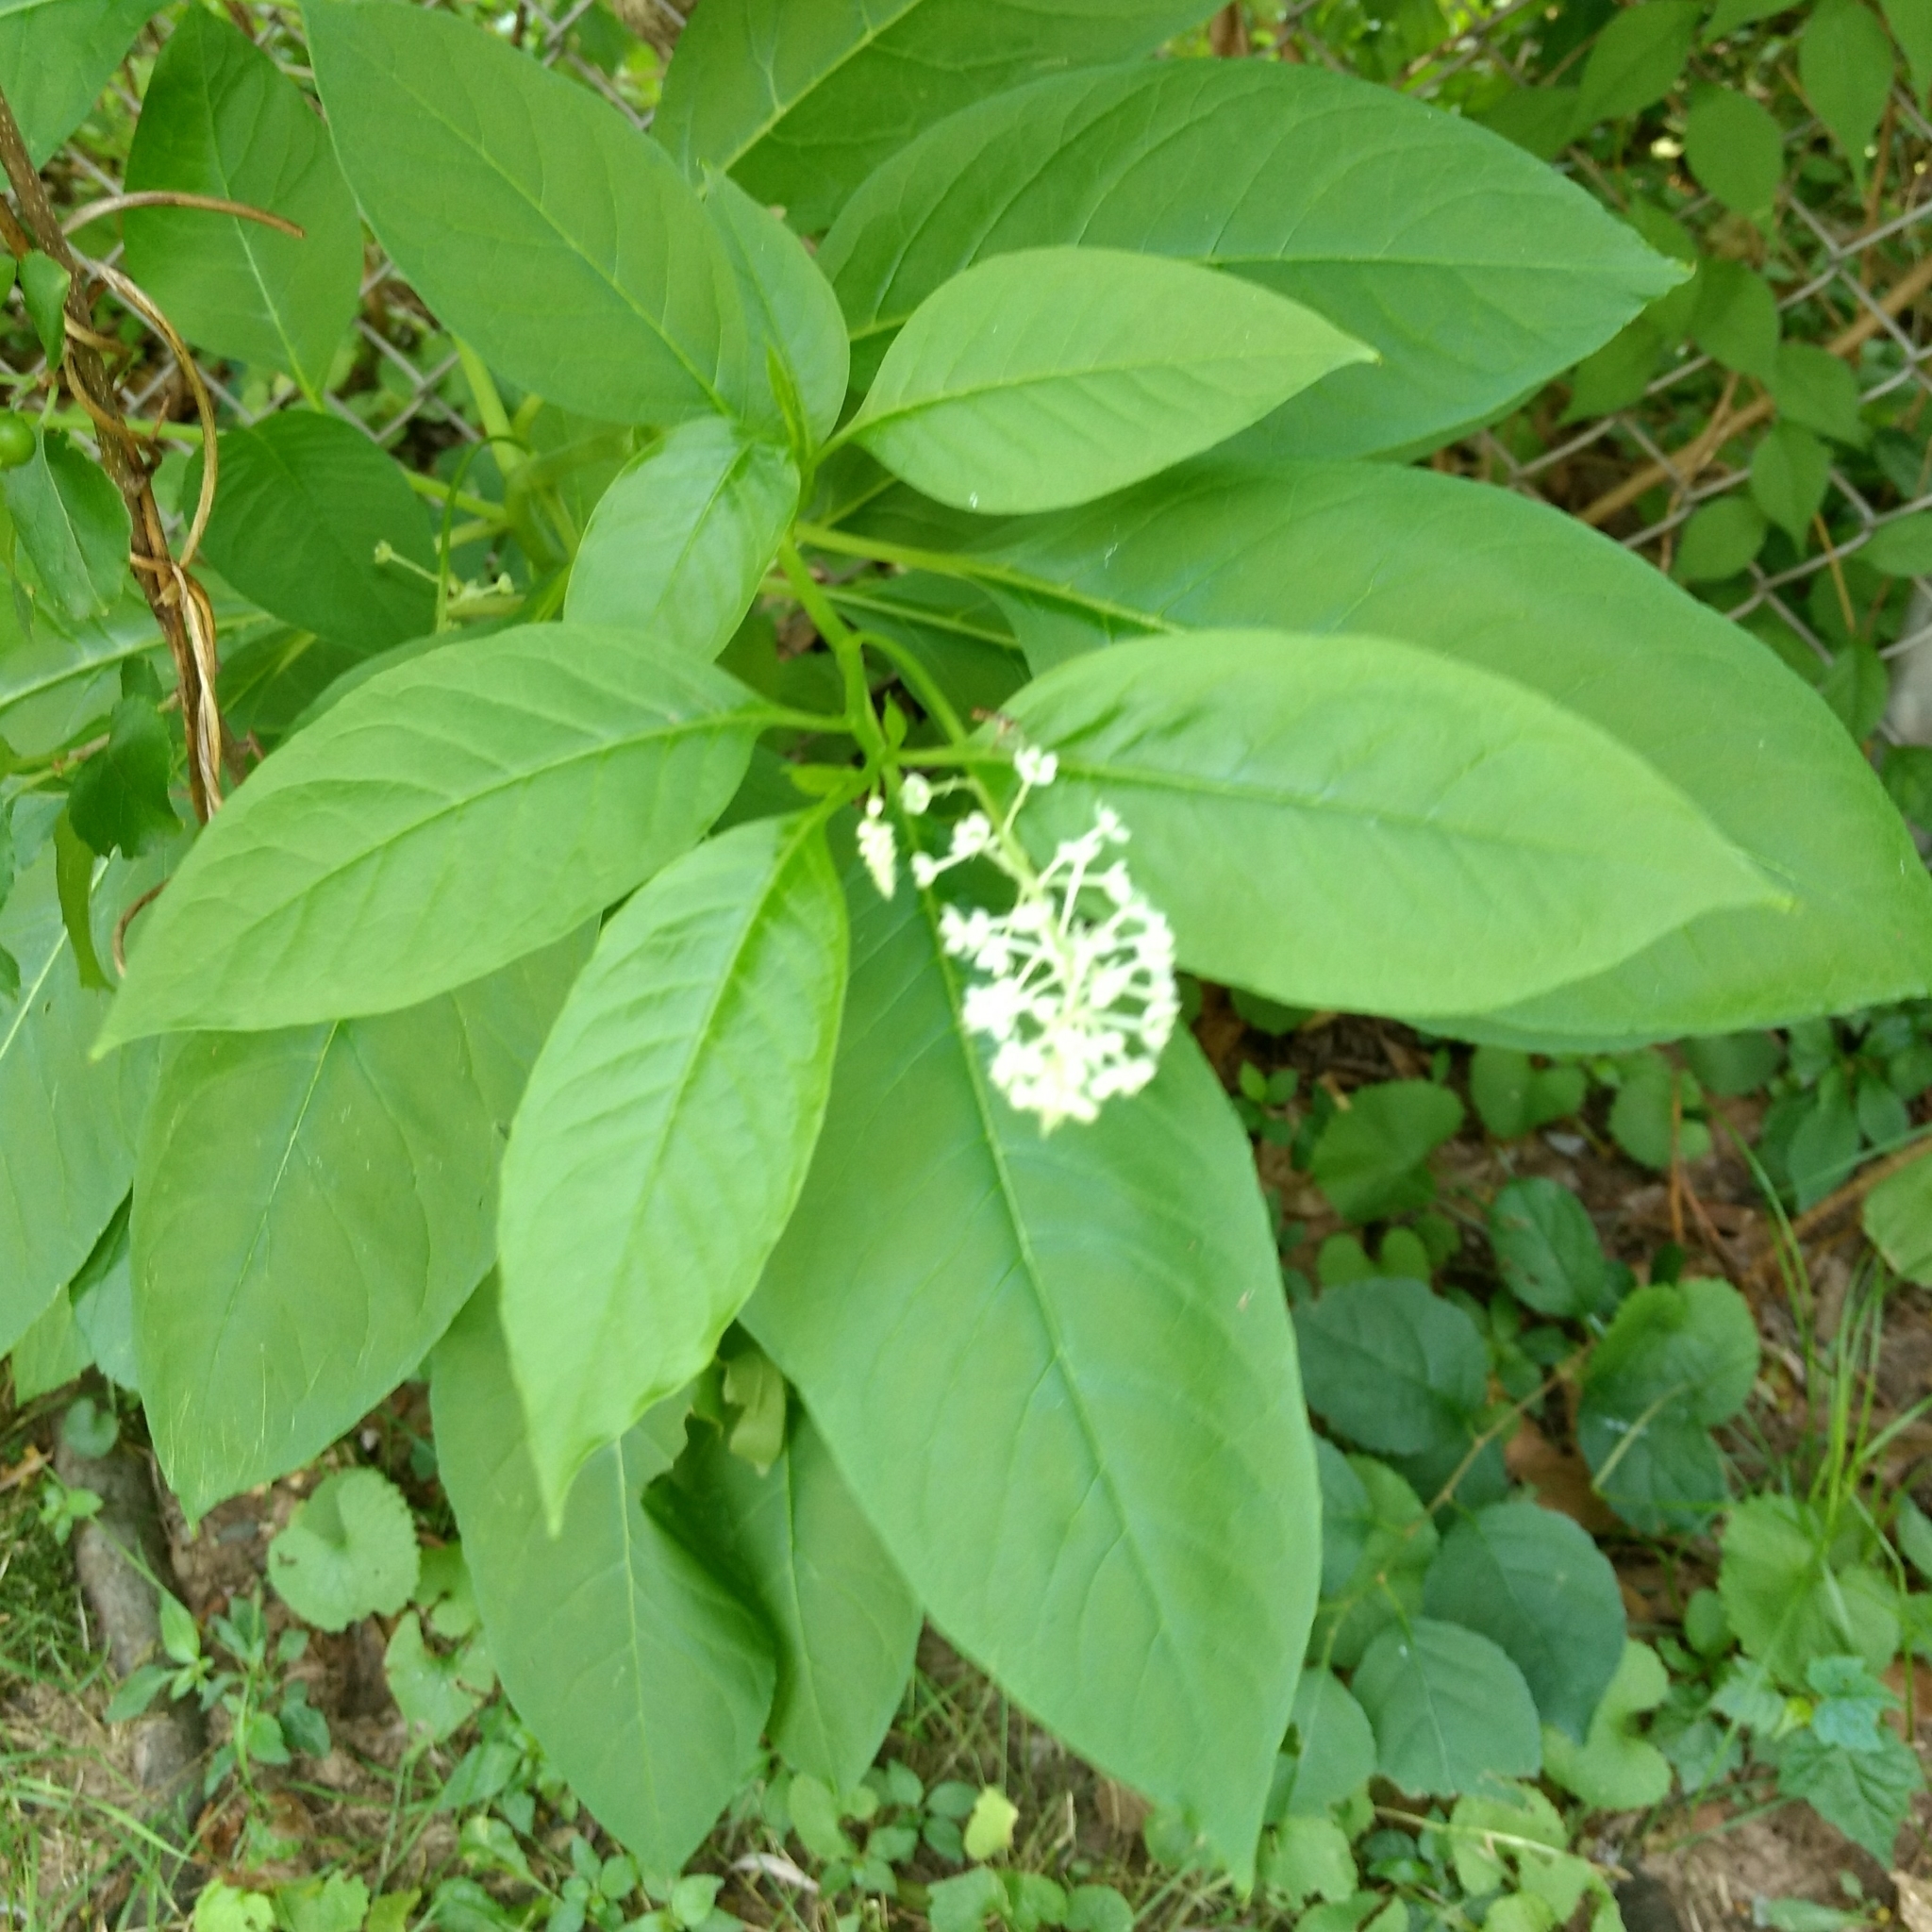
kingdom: Plantae
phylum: Tracheophyta
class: Magnoliopsida
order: Caryophyllales
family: Phytolaccaceae
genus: Phytolacca
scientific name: Phytolacca americana
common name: American pokeweed
